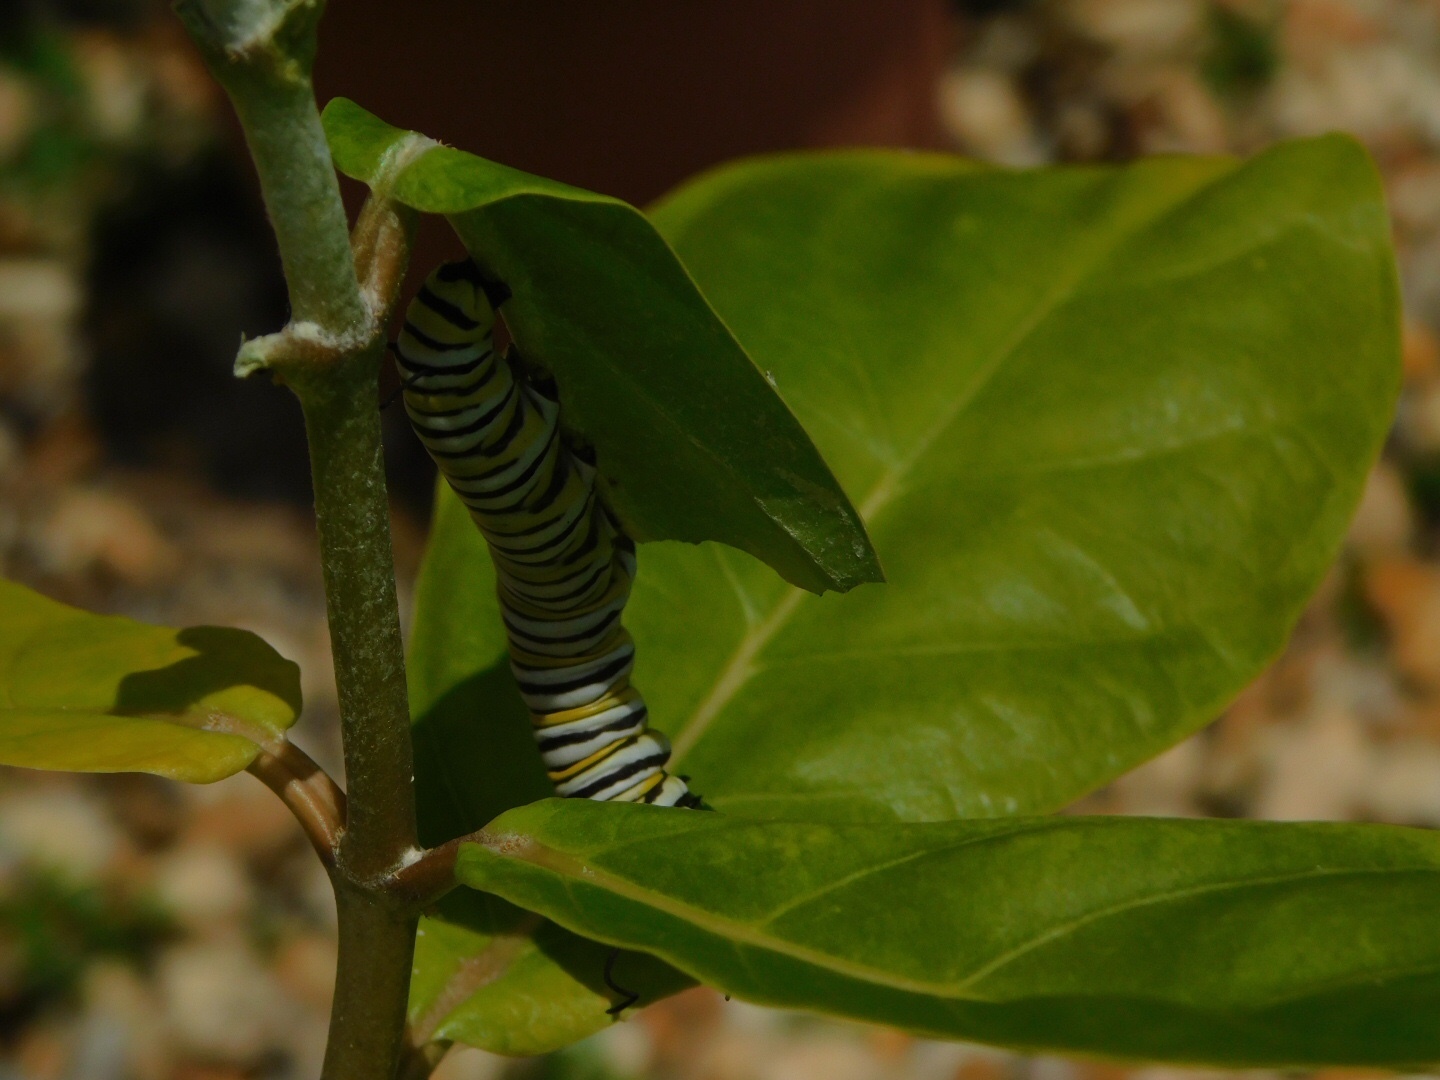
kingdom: Animalia
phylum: Arthropoda
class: Insecta
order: Lepidoptera
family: Nymphalidae
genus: Danaus
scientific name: Danaus plexippus
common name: Monarch
